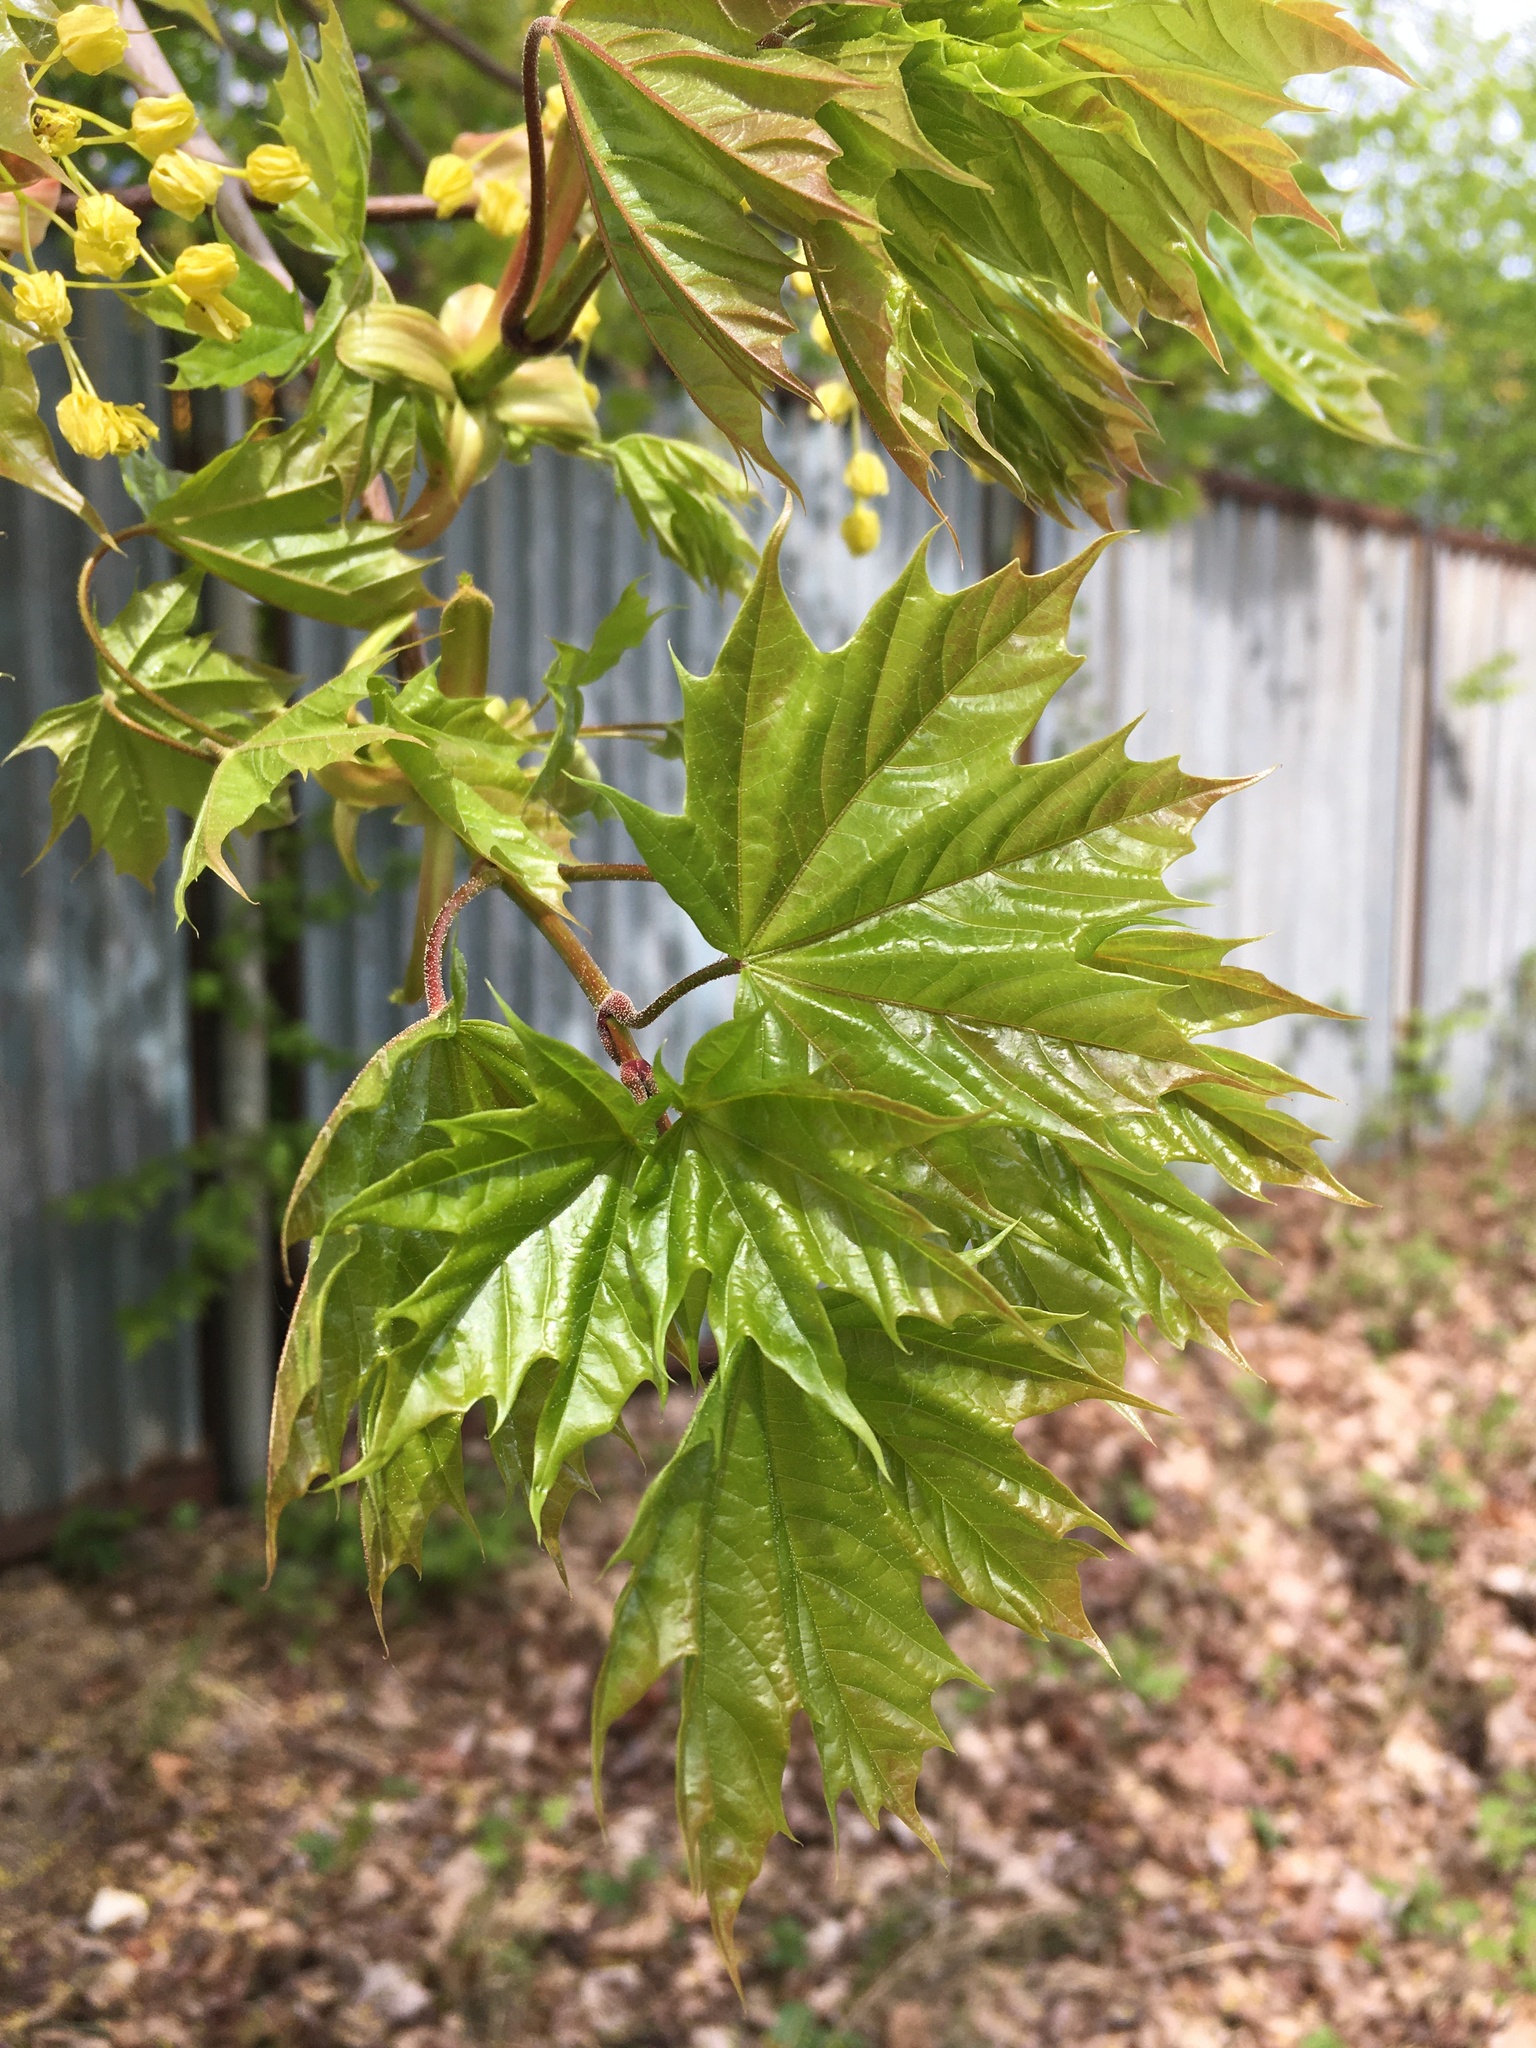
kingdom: Plantae
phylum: Tracheophyta
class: Magnoliopsida
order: Sapindales
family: Sapindaceae
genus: Acer
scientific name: Acer platanoides
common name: Norway maple
